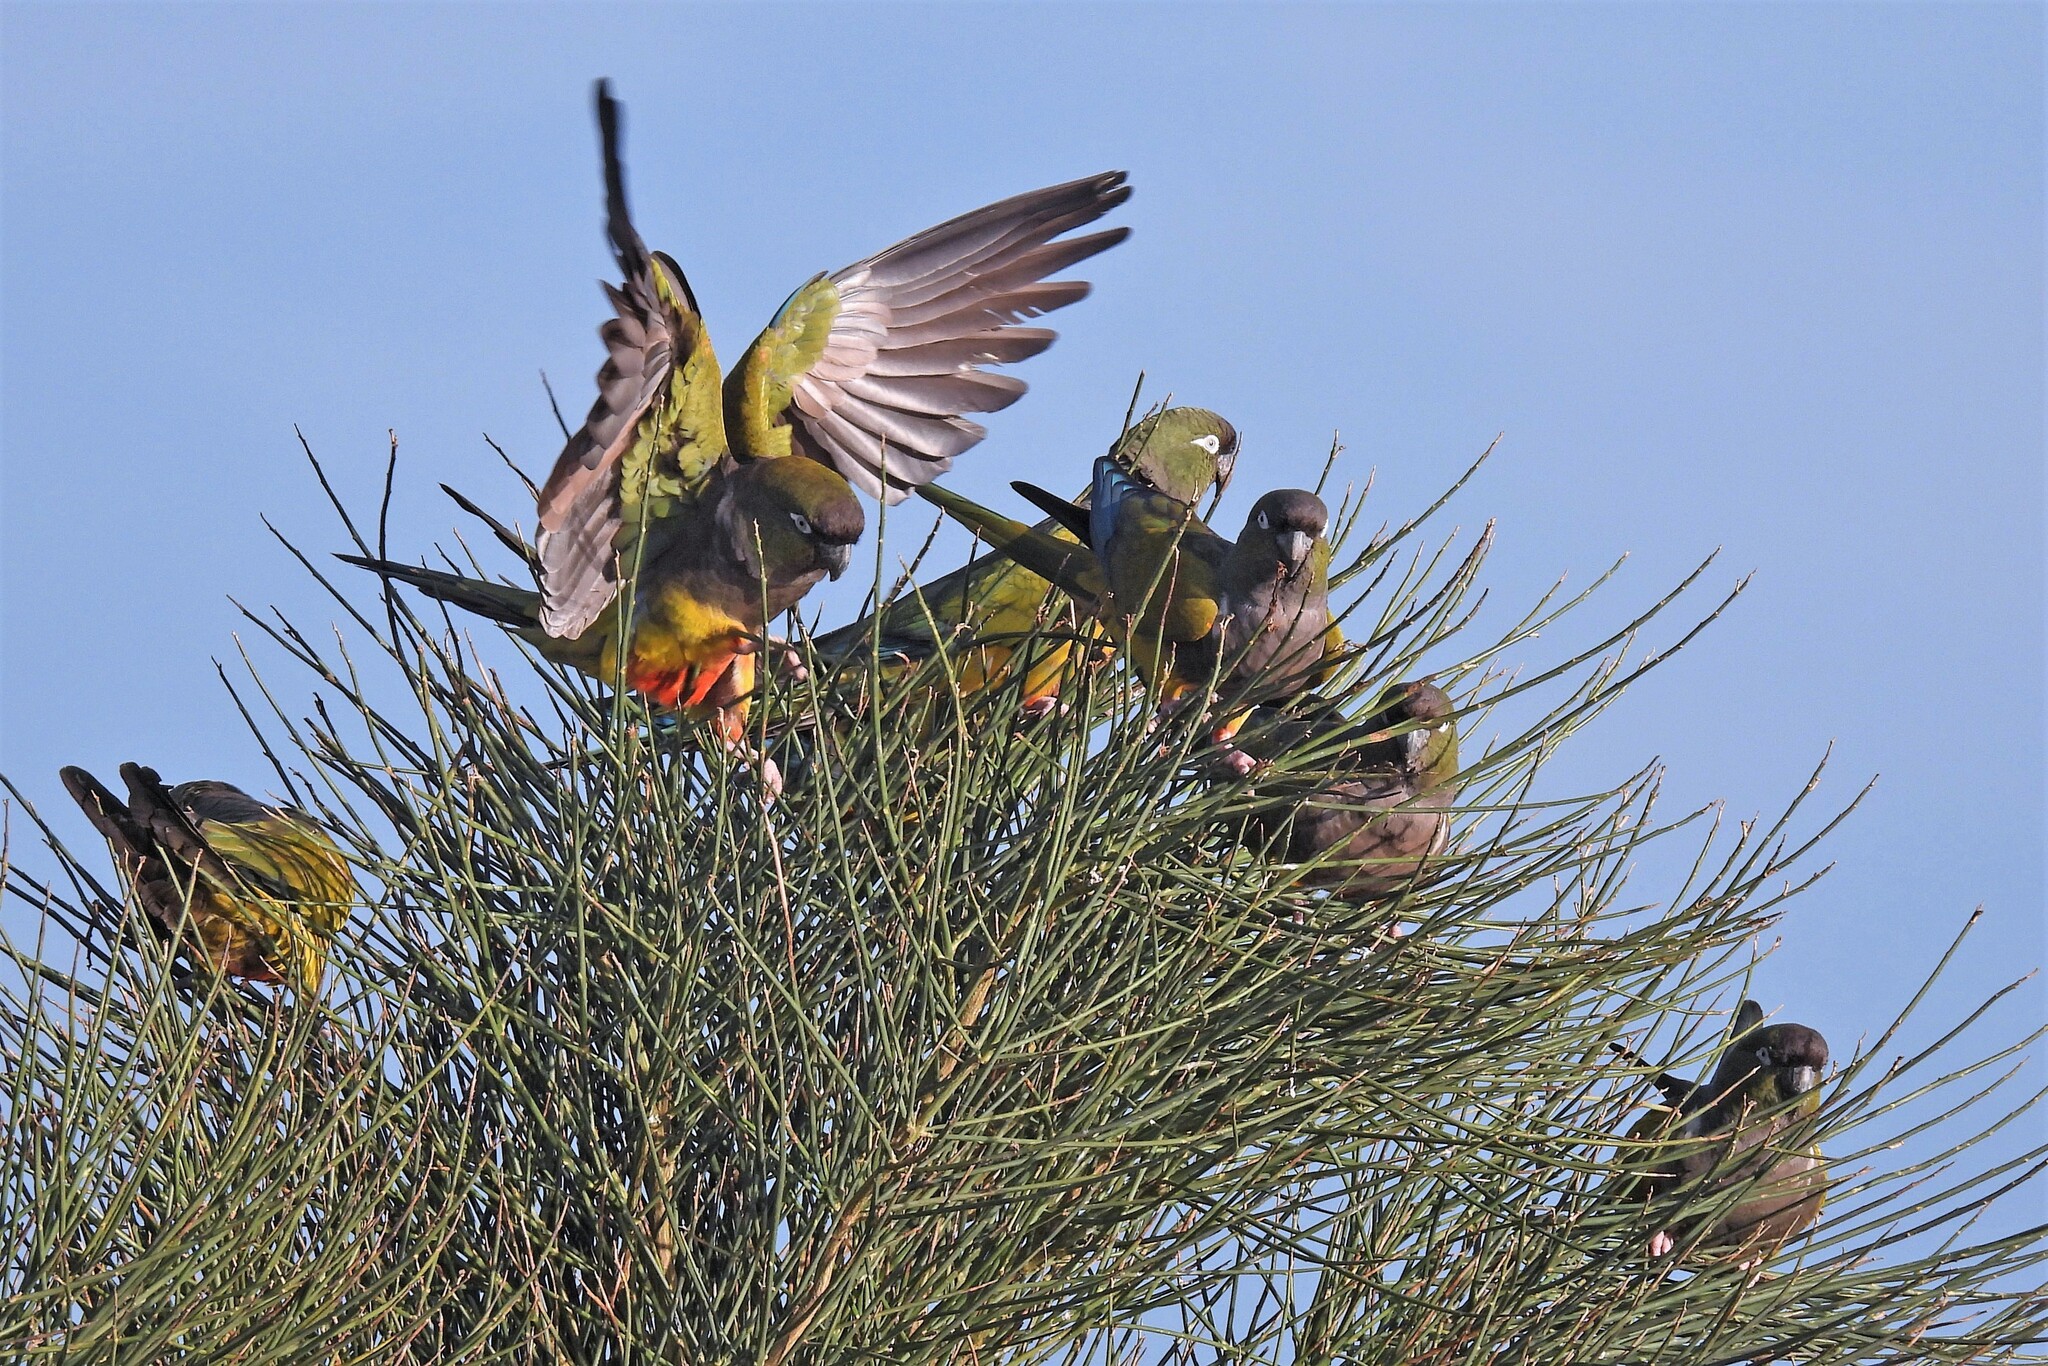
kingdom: Animalia
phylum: Chordata
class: Aves
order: Psittaciformes
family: Psittacidae
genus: Cyanoliseus
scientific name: Cyanoliseus patagonus
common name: Burrowing parrot
